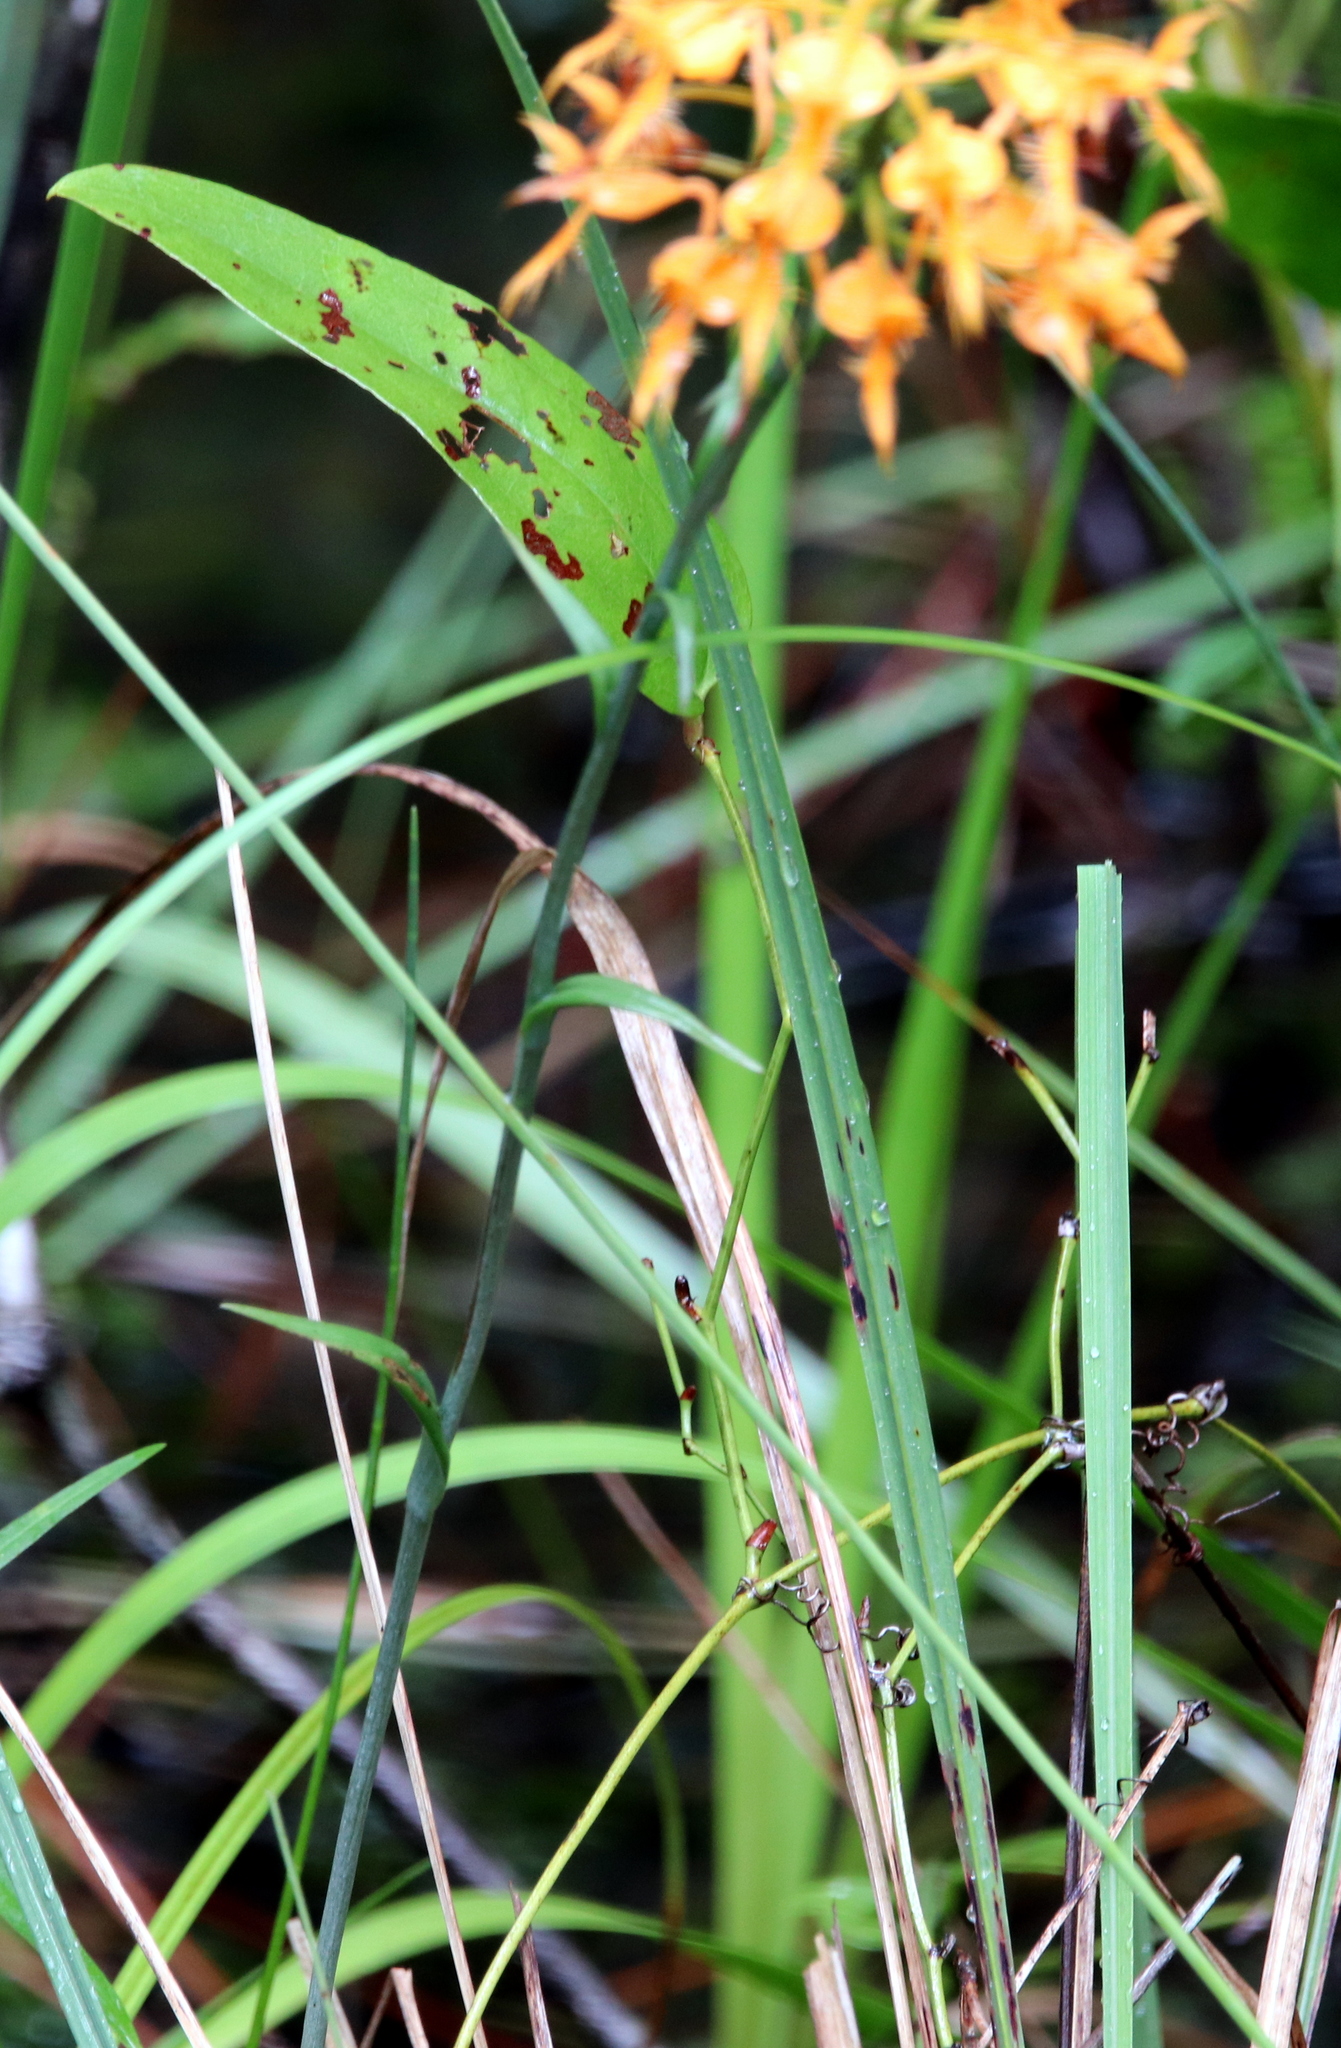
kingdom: Plantae
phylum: Tracheophyta
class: Liliopsida
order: Asparagales
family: Orchidaceae
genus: Platanthera
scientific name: Platanthera ciliaris
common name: Yellow fringed orchid
